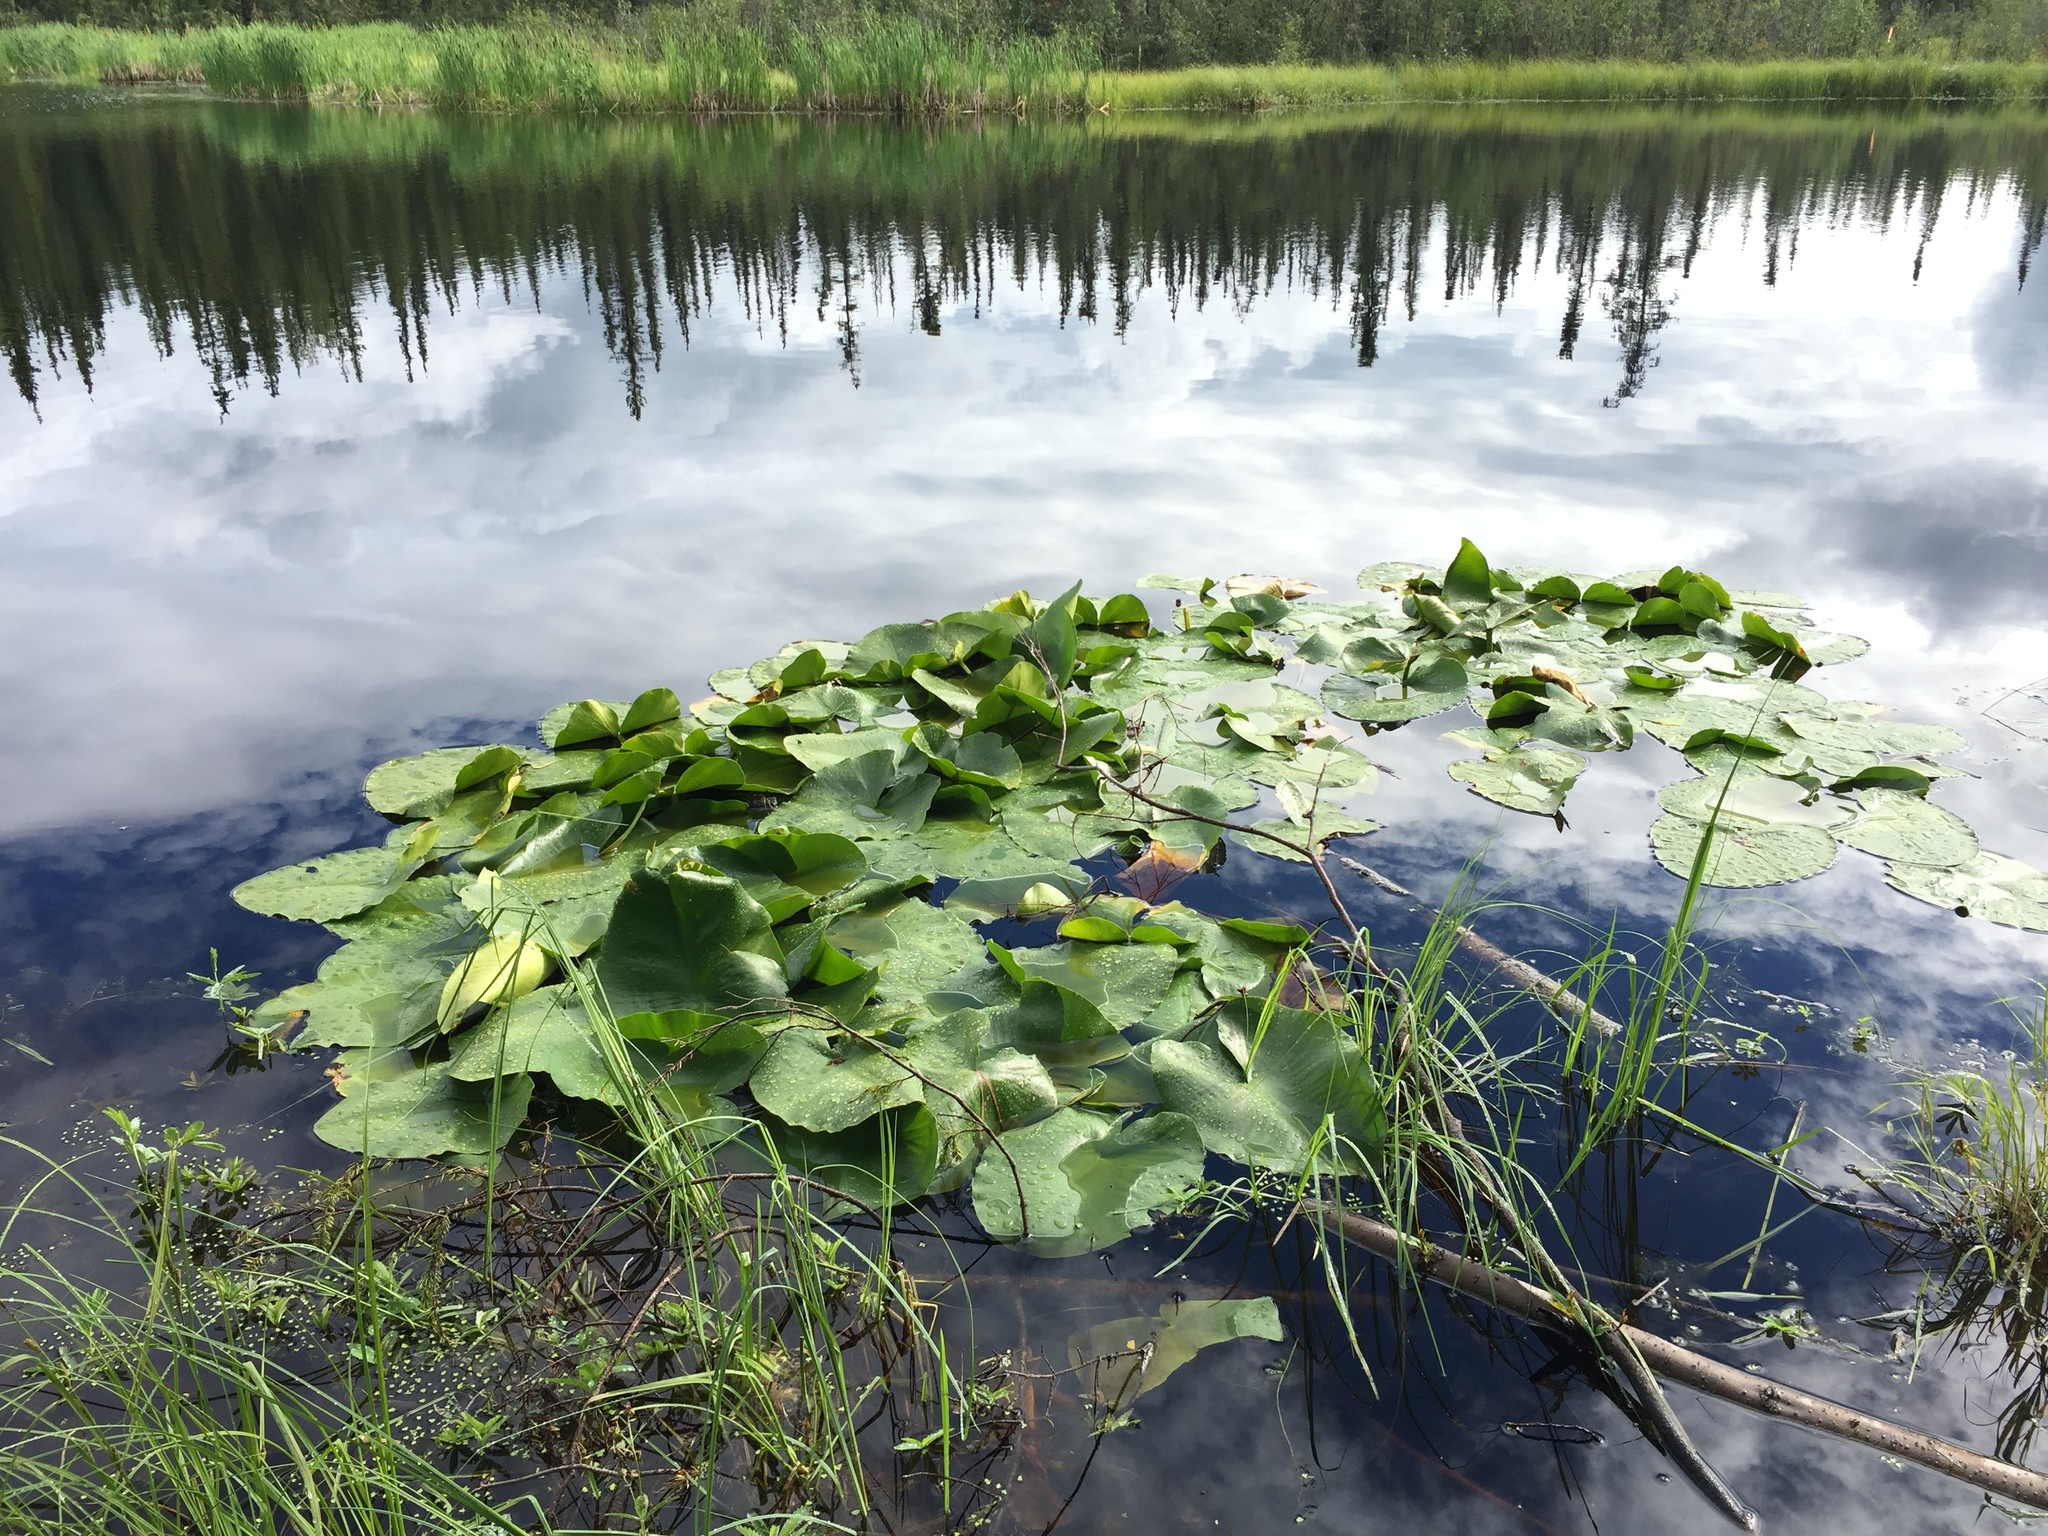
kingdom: Plantae
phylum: Tracheophyta
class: Magnoliopsida
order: Nymphaeales
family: Nymphaeaceae
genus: Nuphar
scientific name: Nuphar polysepala
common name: Rocky mountain cow-lily
